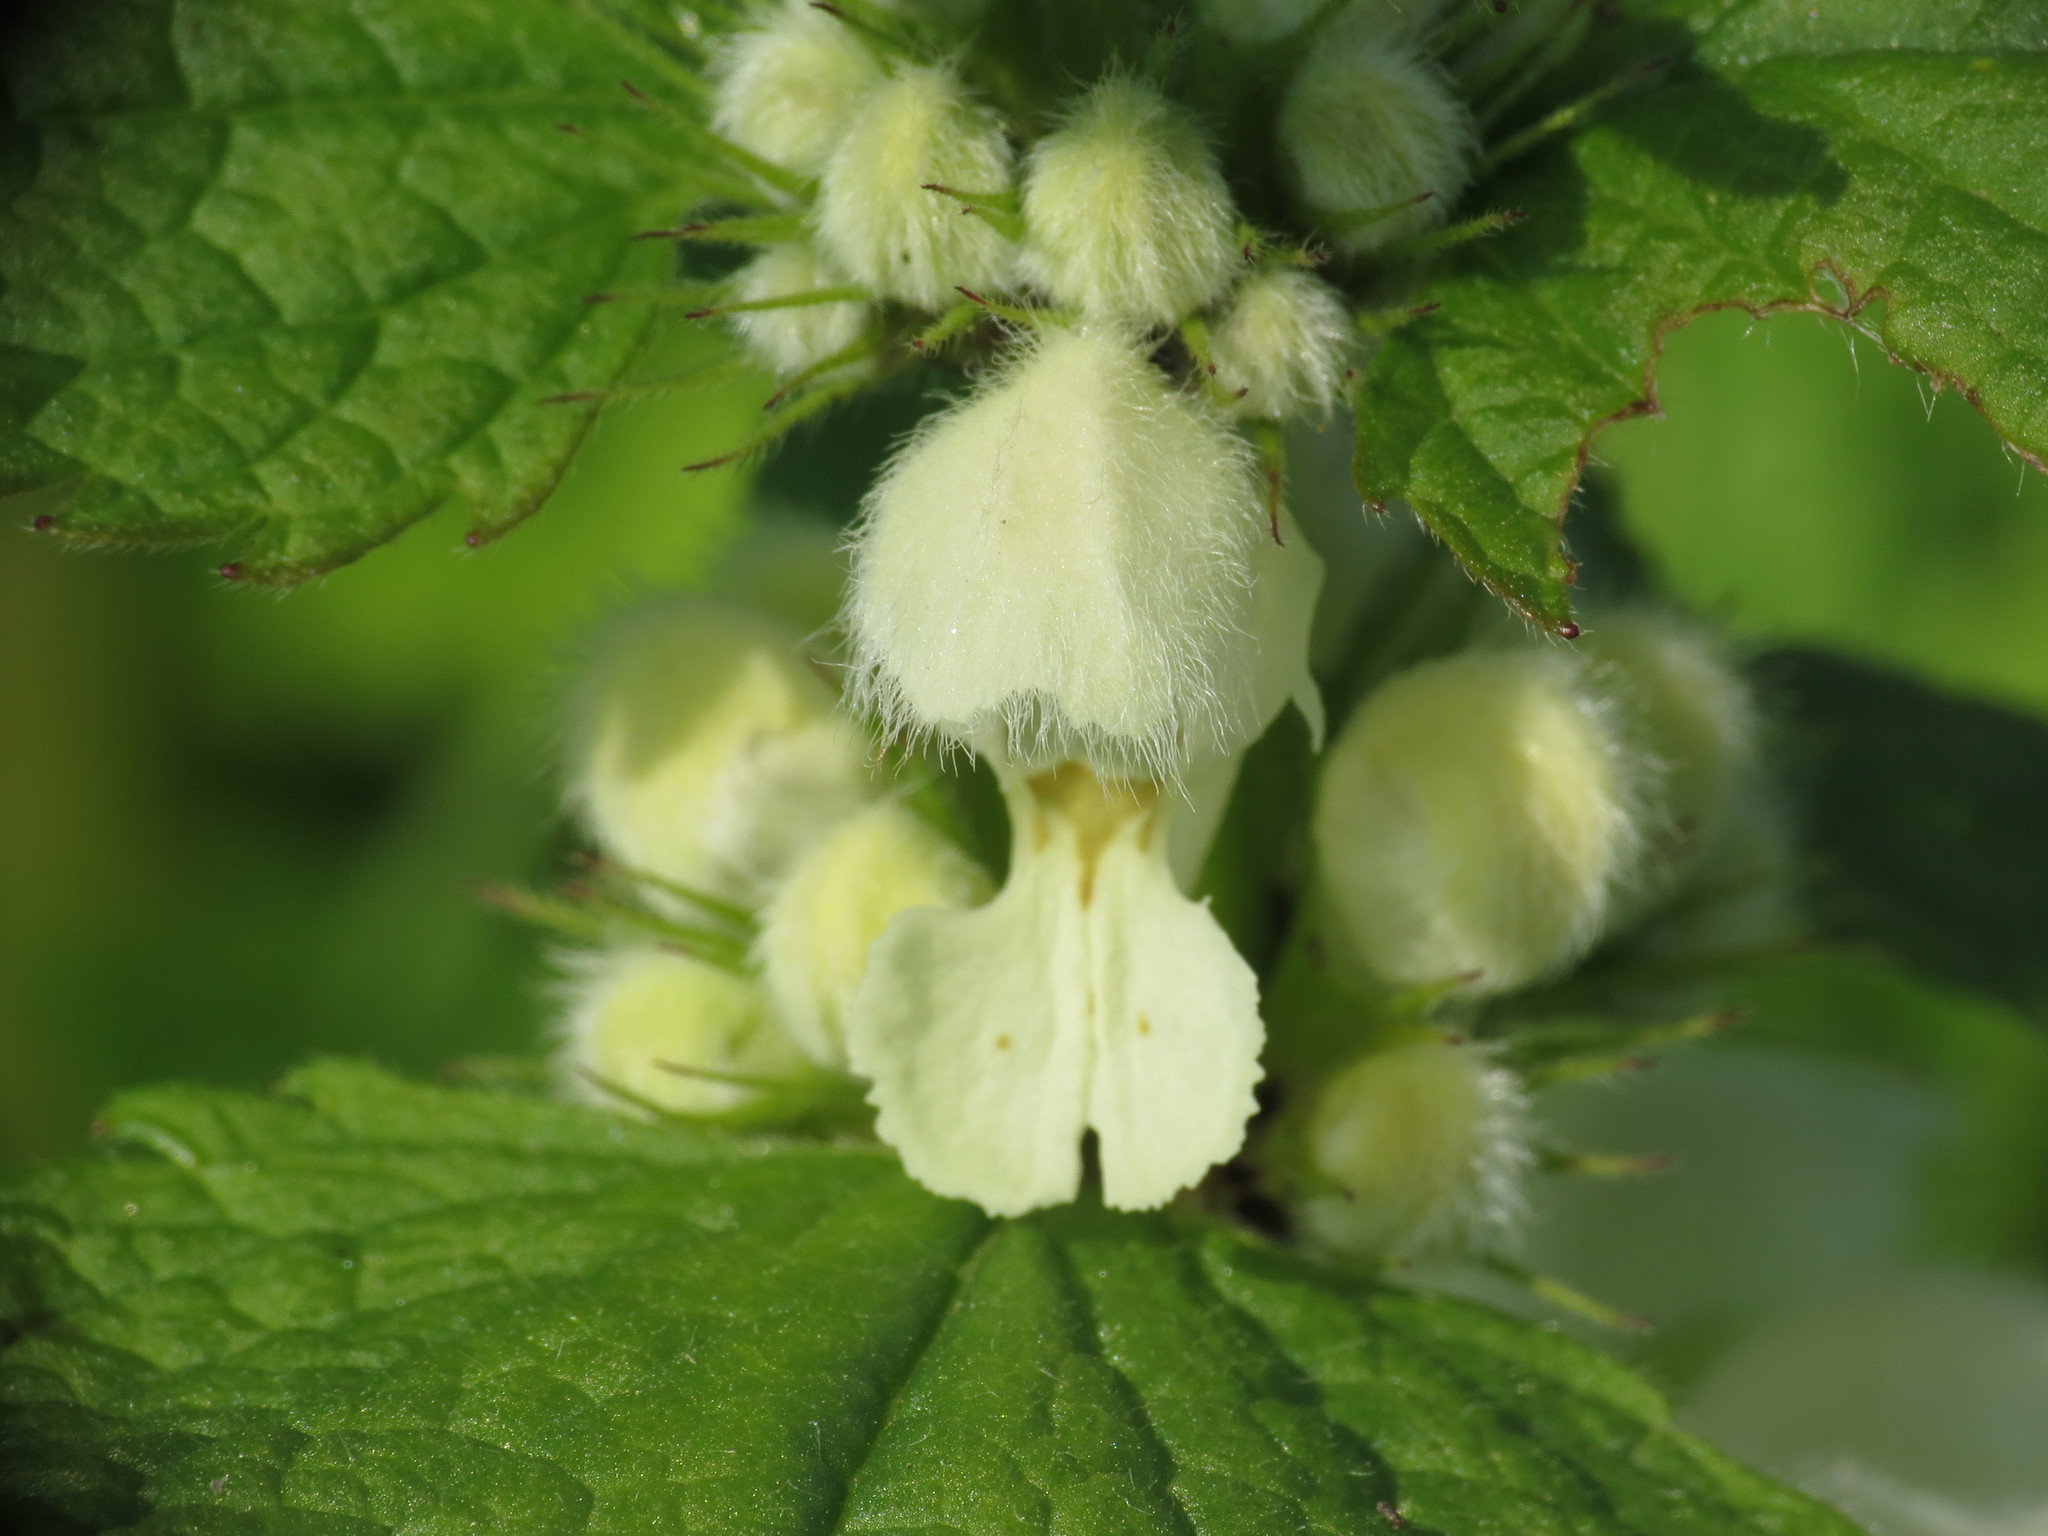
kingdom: Plantae
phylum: Tracheophyta
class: Magnoliopsida
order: Lamiales
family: Lamiaceae
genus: Lamium
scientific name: Lamium album
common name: White dead-nettle
